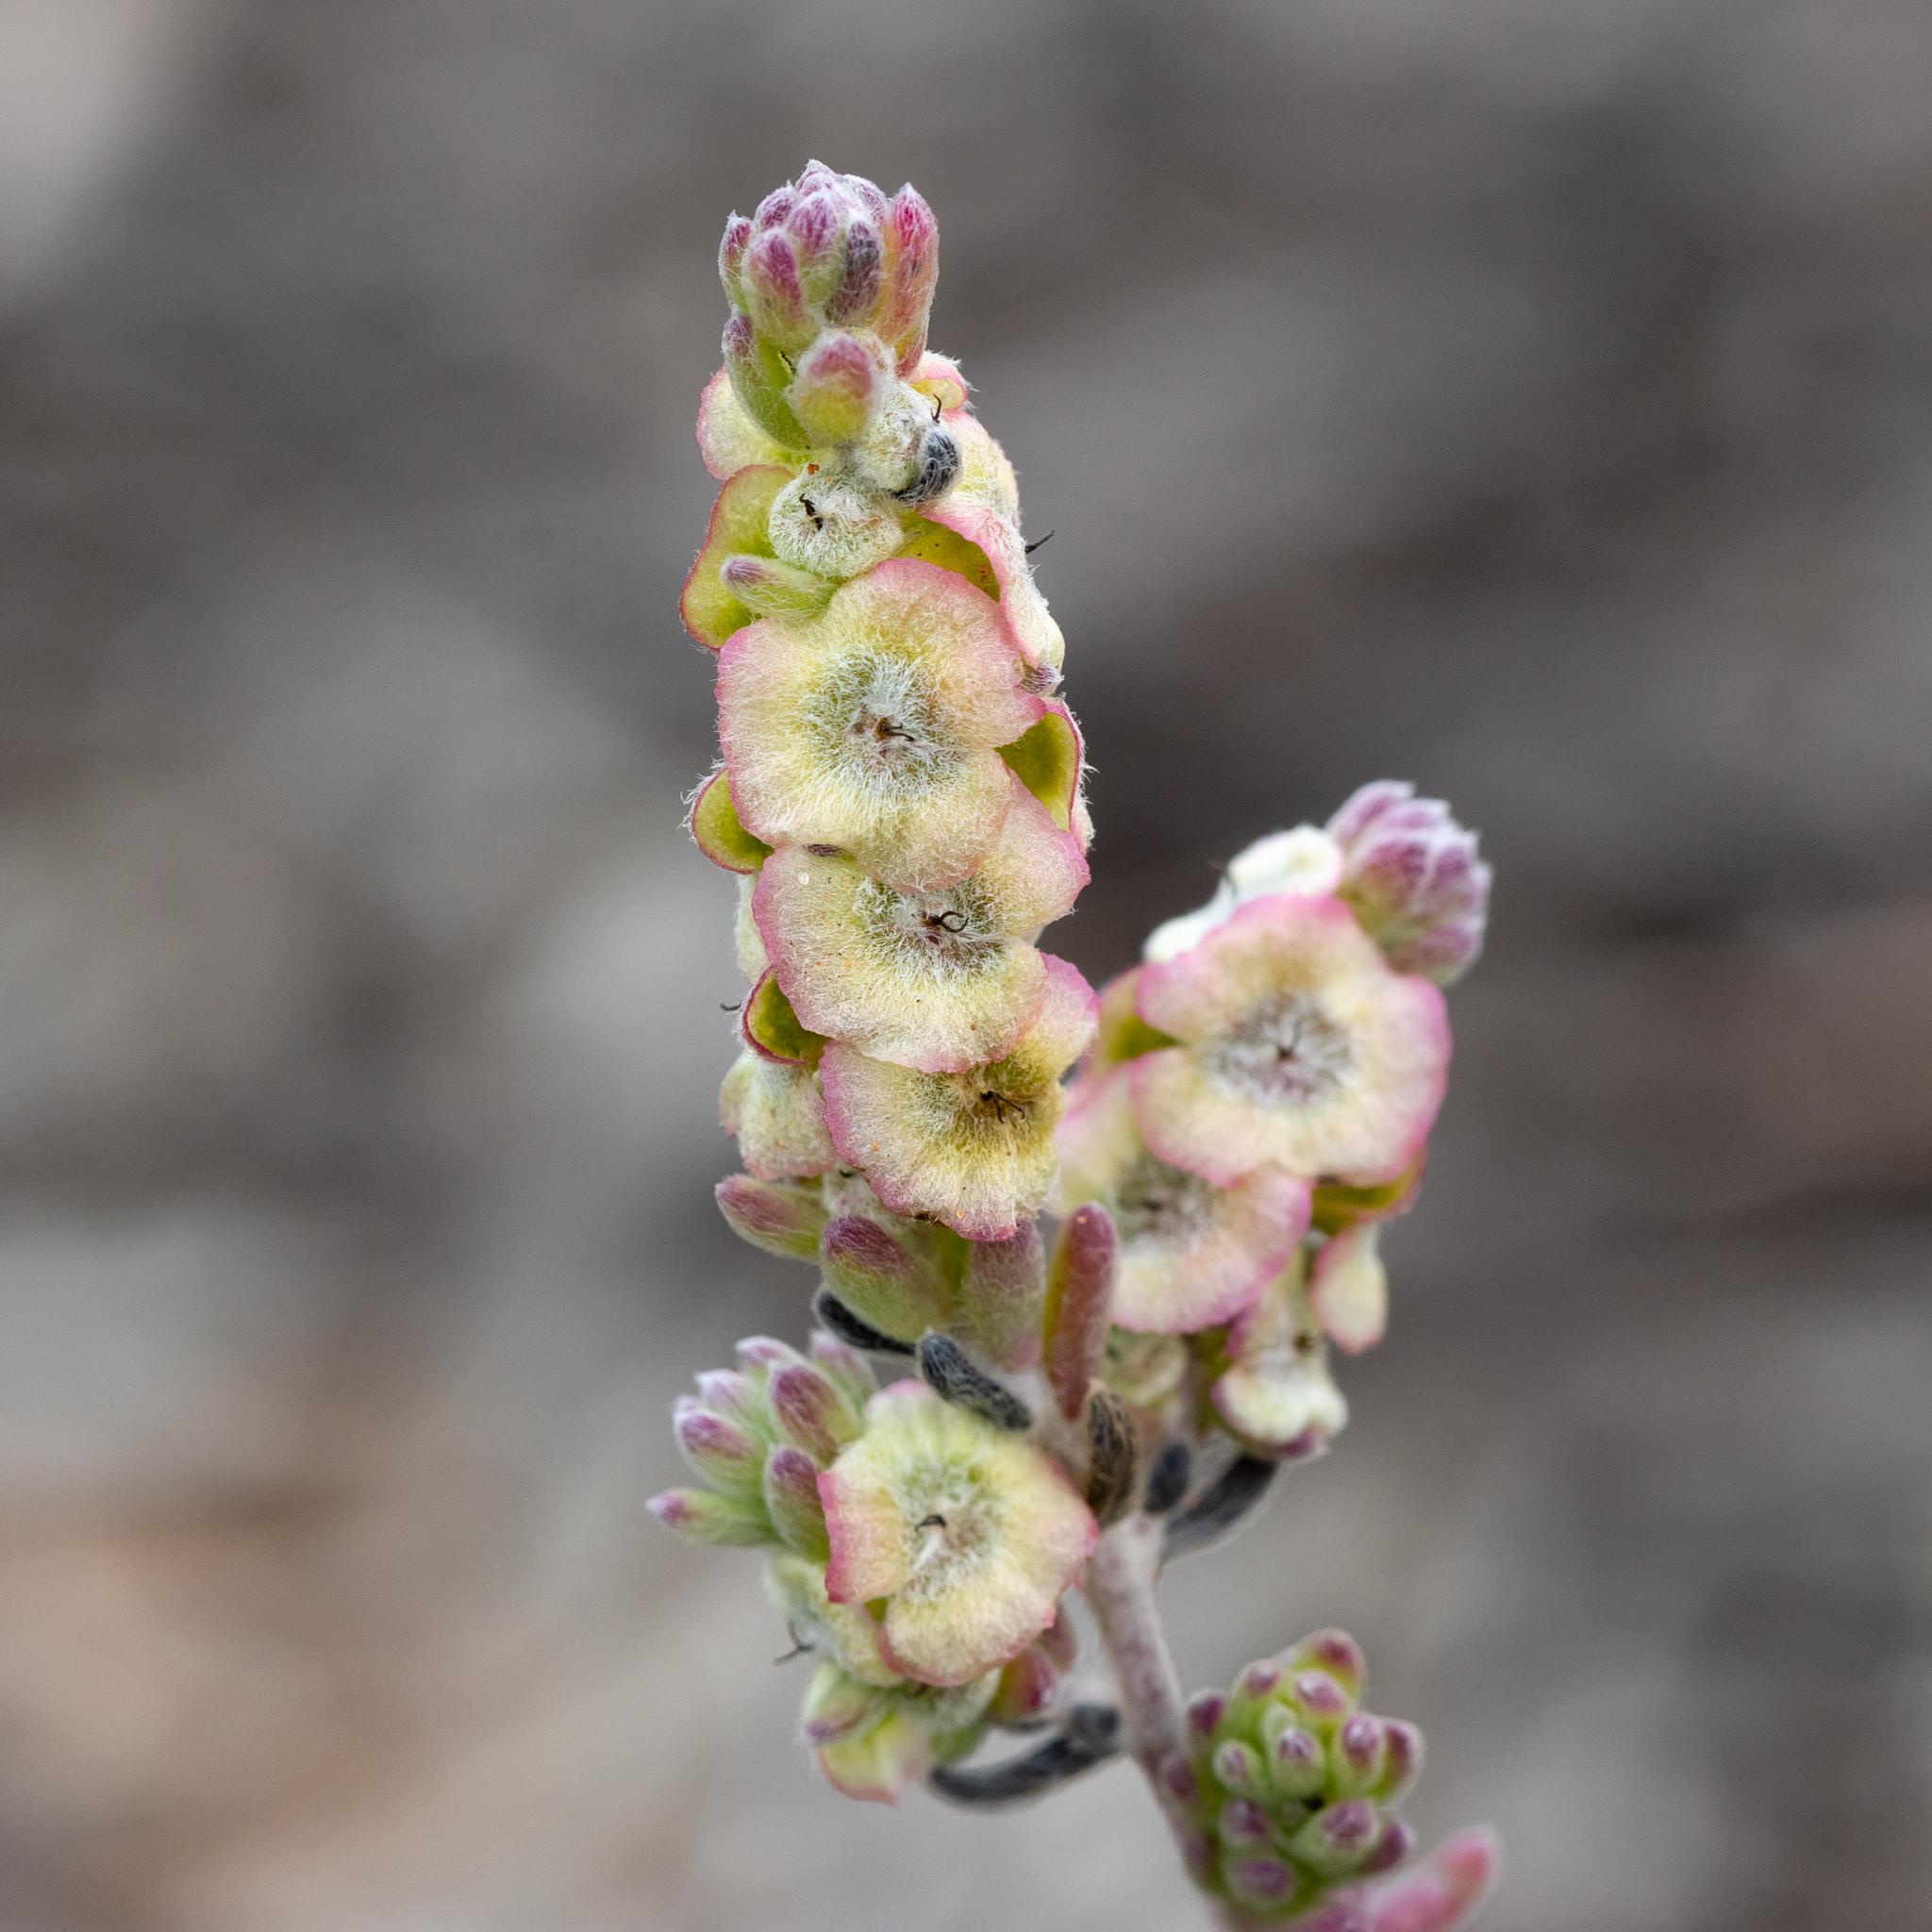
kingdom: Plantae
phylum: Tracheophyta
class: Magnoliopsida
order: Caryophyllales
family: Amaranthaceae
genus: Maireana
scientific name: Maireana trichoptera
